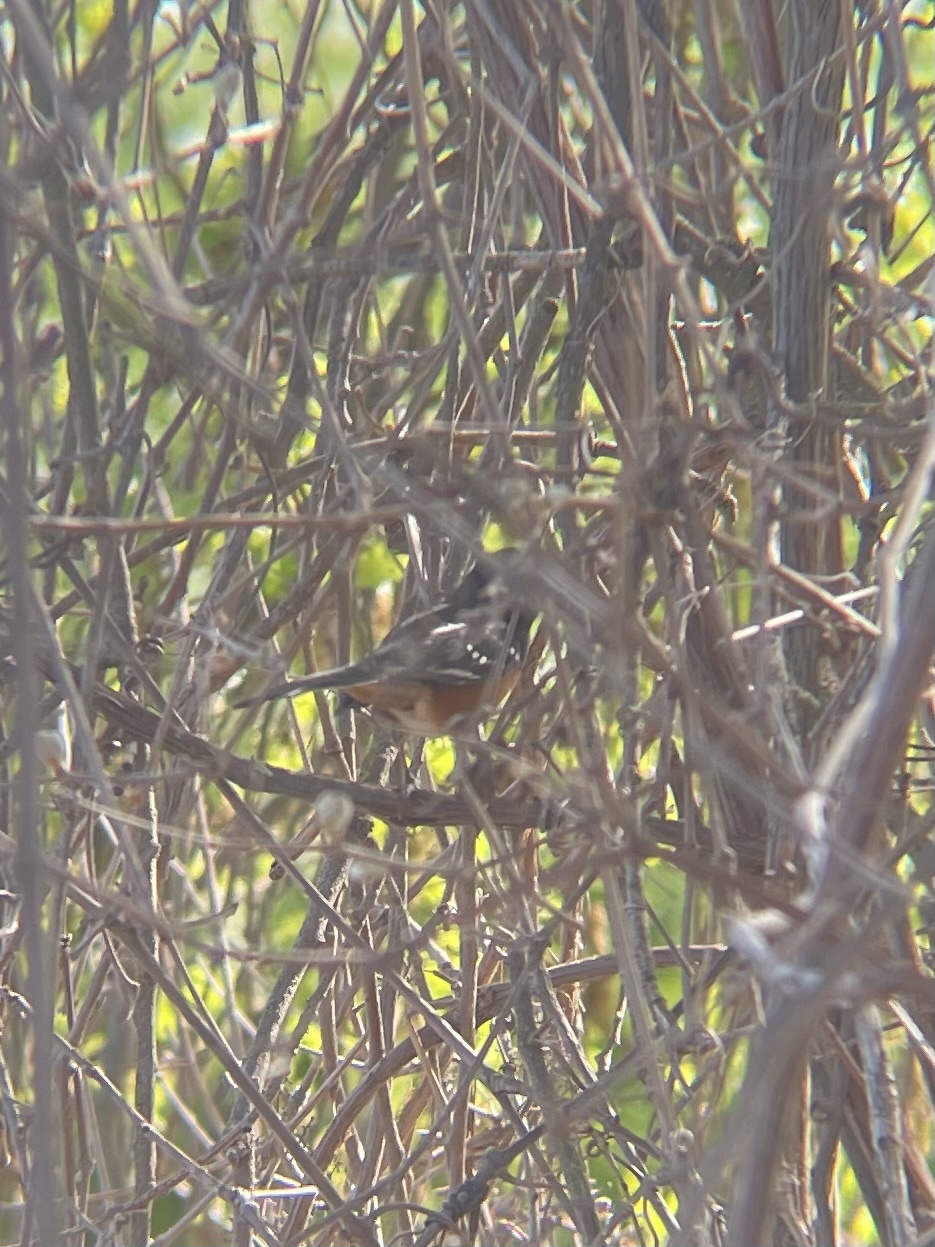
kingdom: Animalia
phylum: Chordata
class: Aves
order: Passeriformes
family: Passerellidae
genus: Pipilo
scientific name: Pipilo maculatus
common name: Spotted towhee
